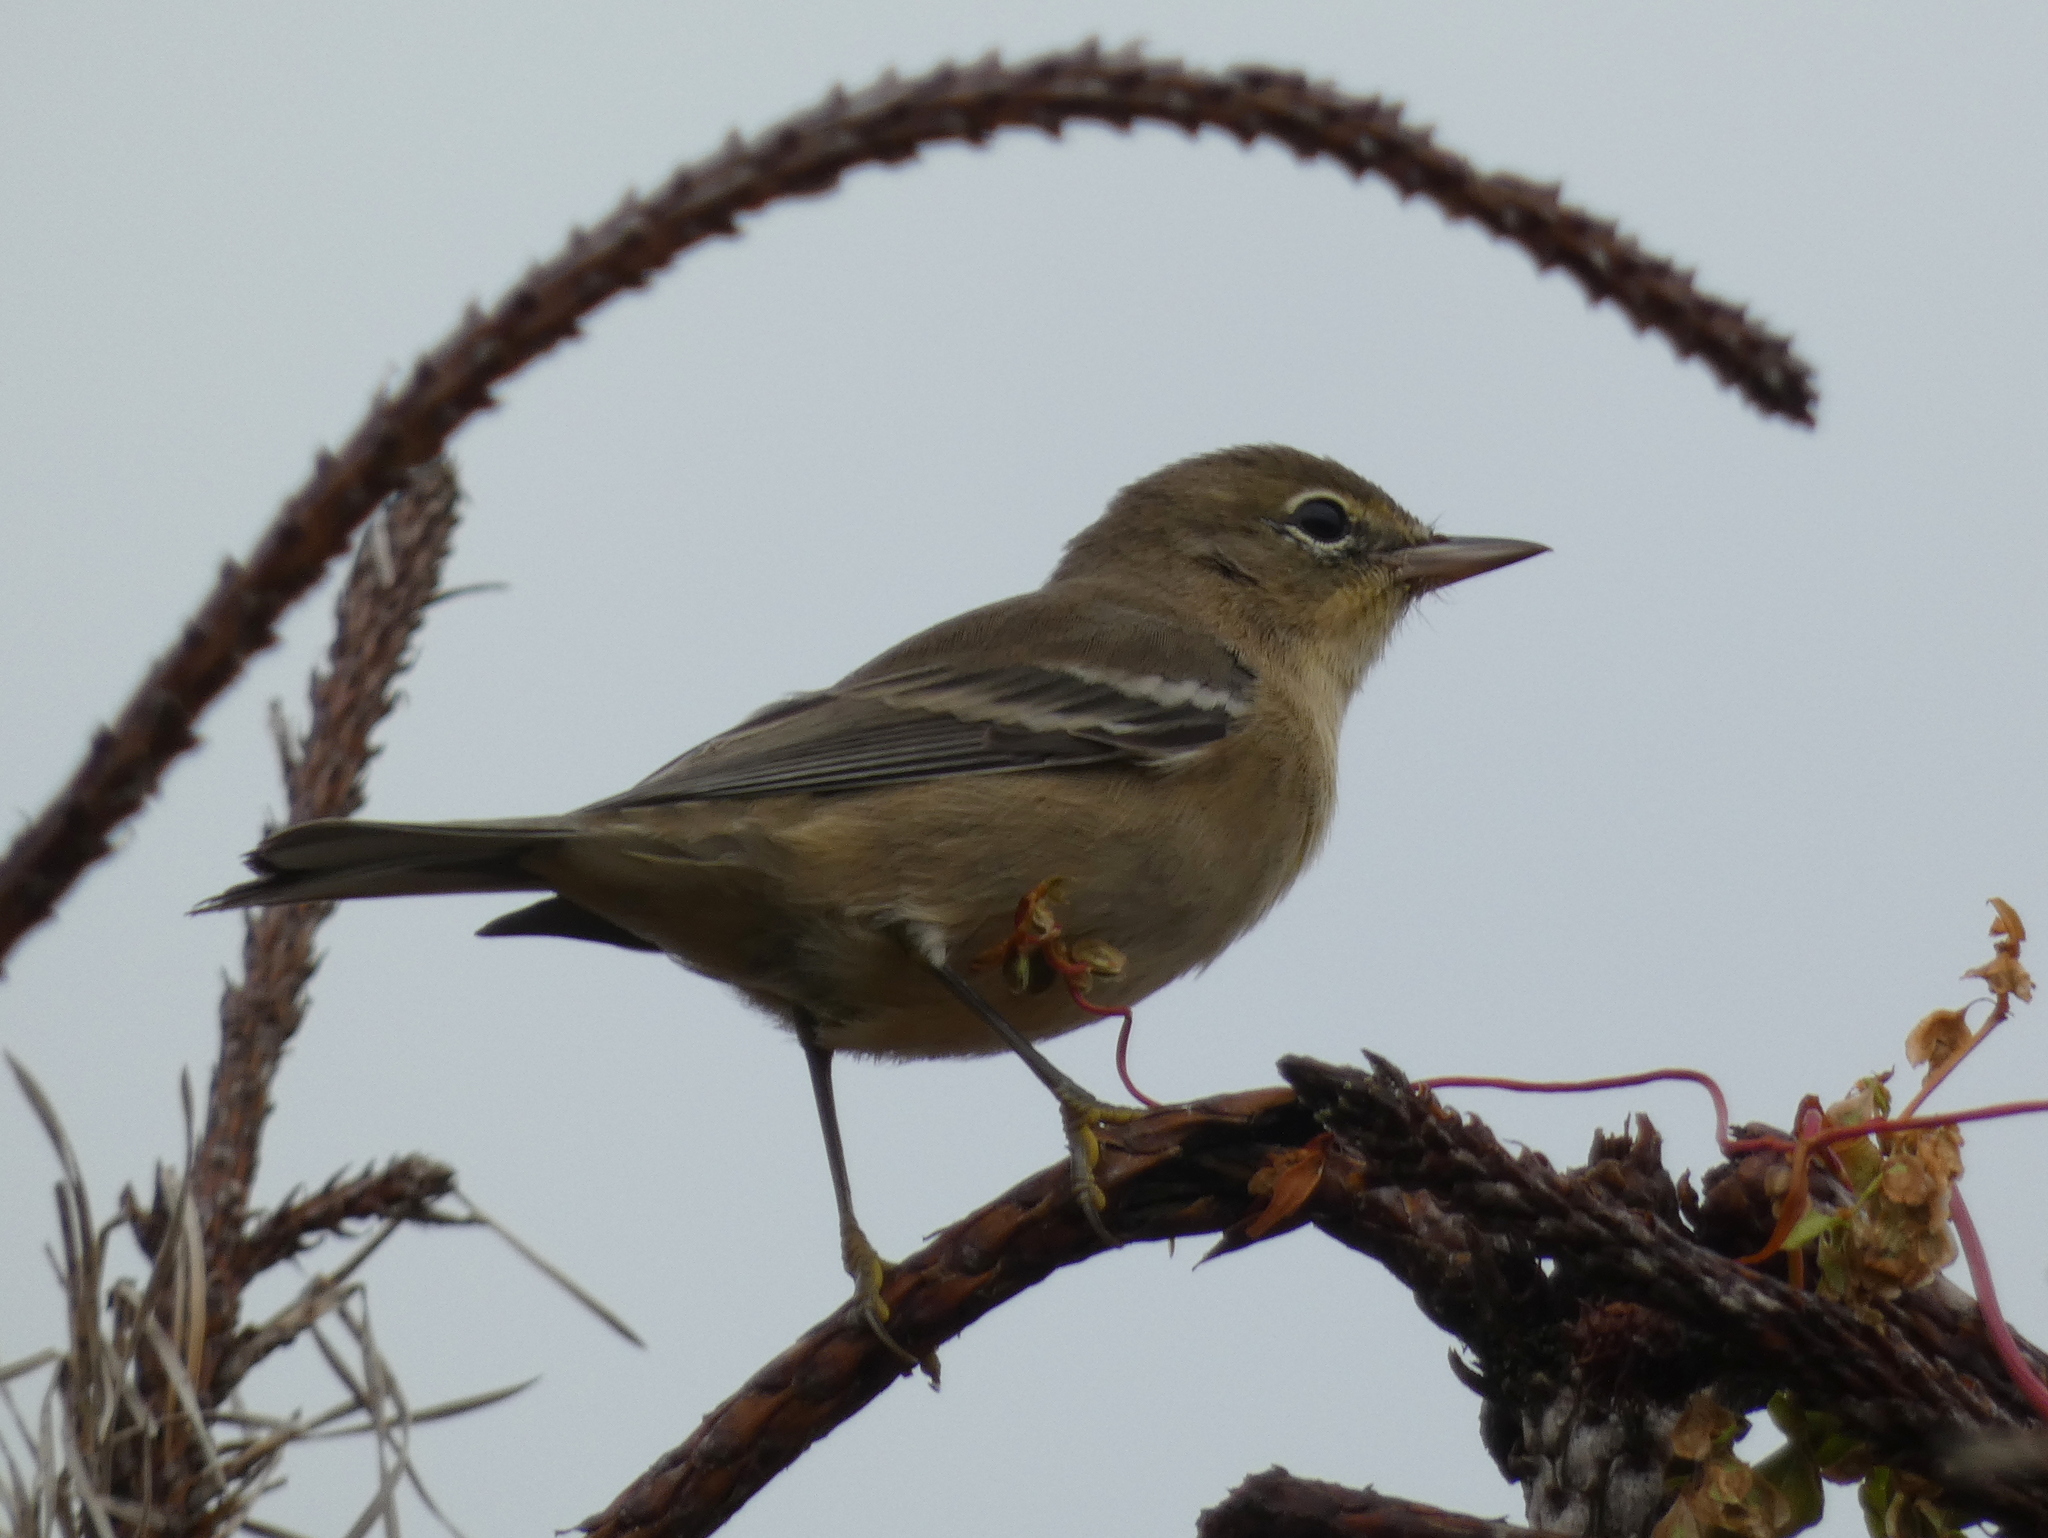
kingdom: Animalia
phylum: Chordata
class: Aves
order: Passeriformes
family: Parulidae
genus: Setophaga
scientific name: Setophaga pinus
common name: Pine warbler
